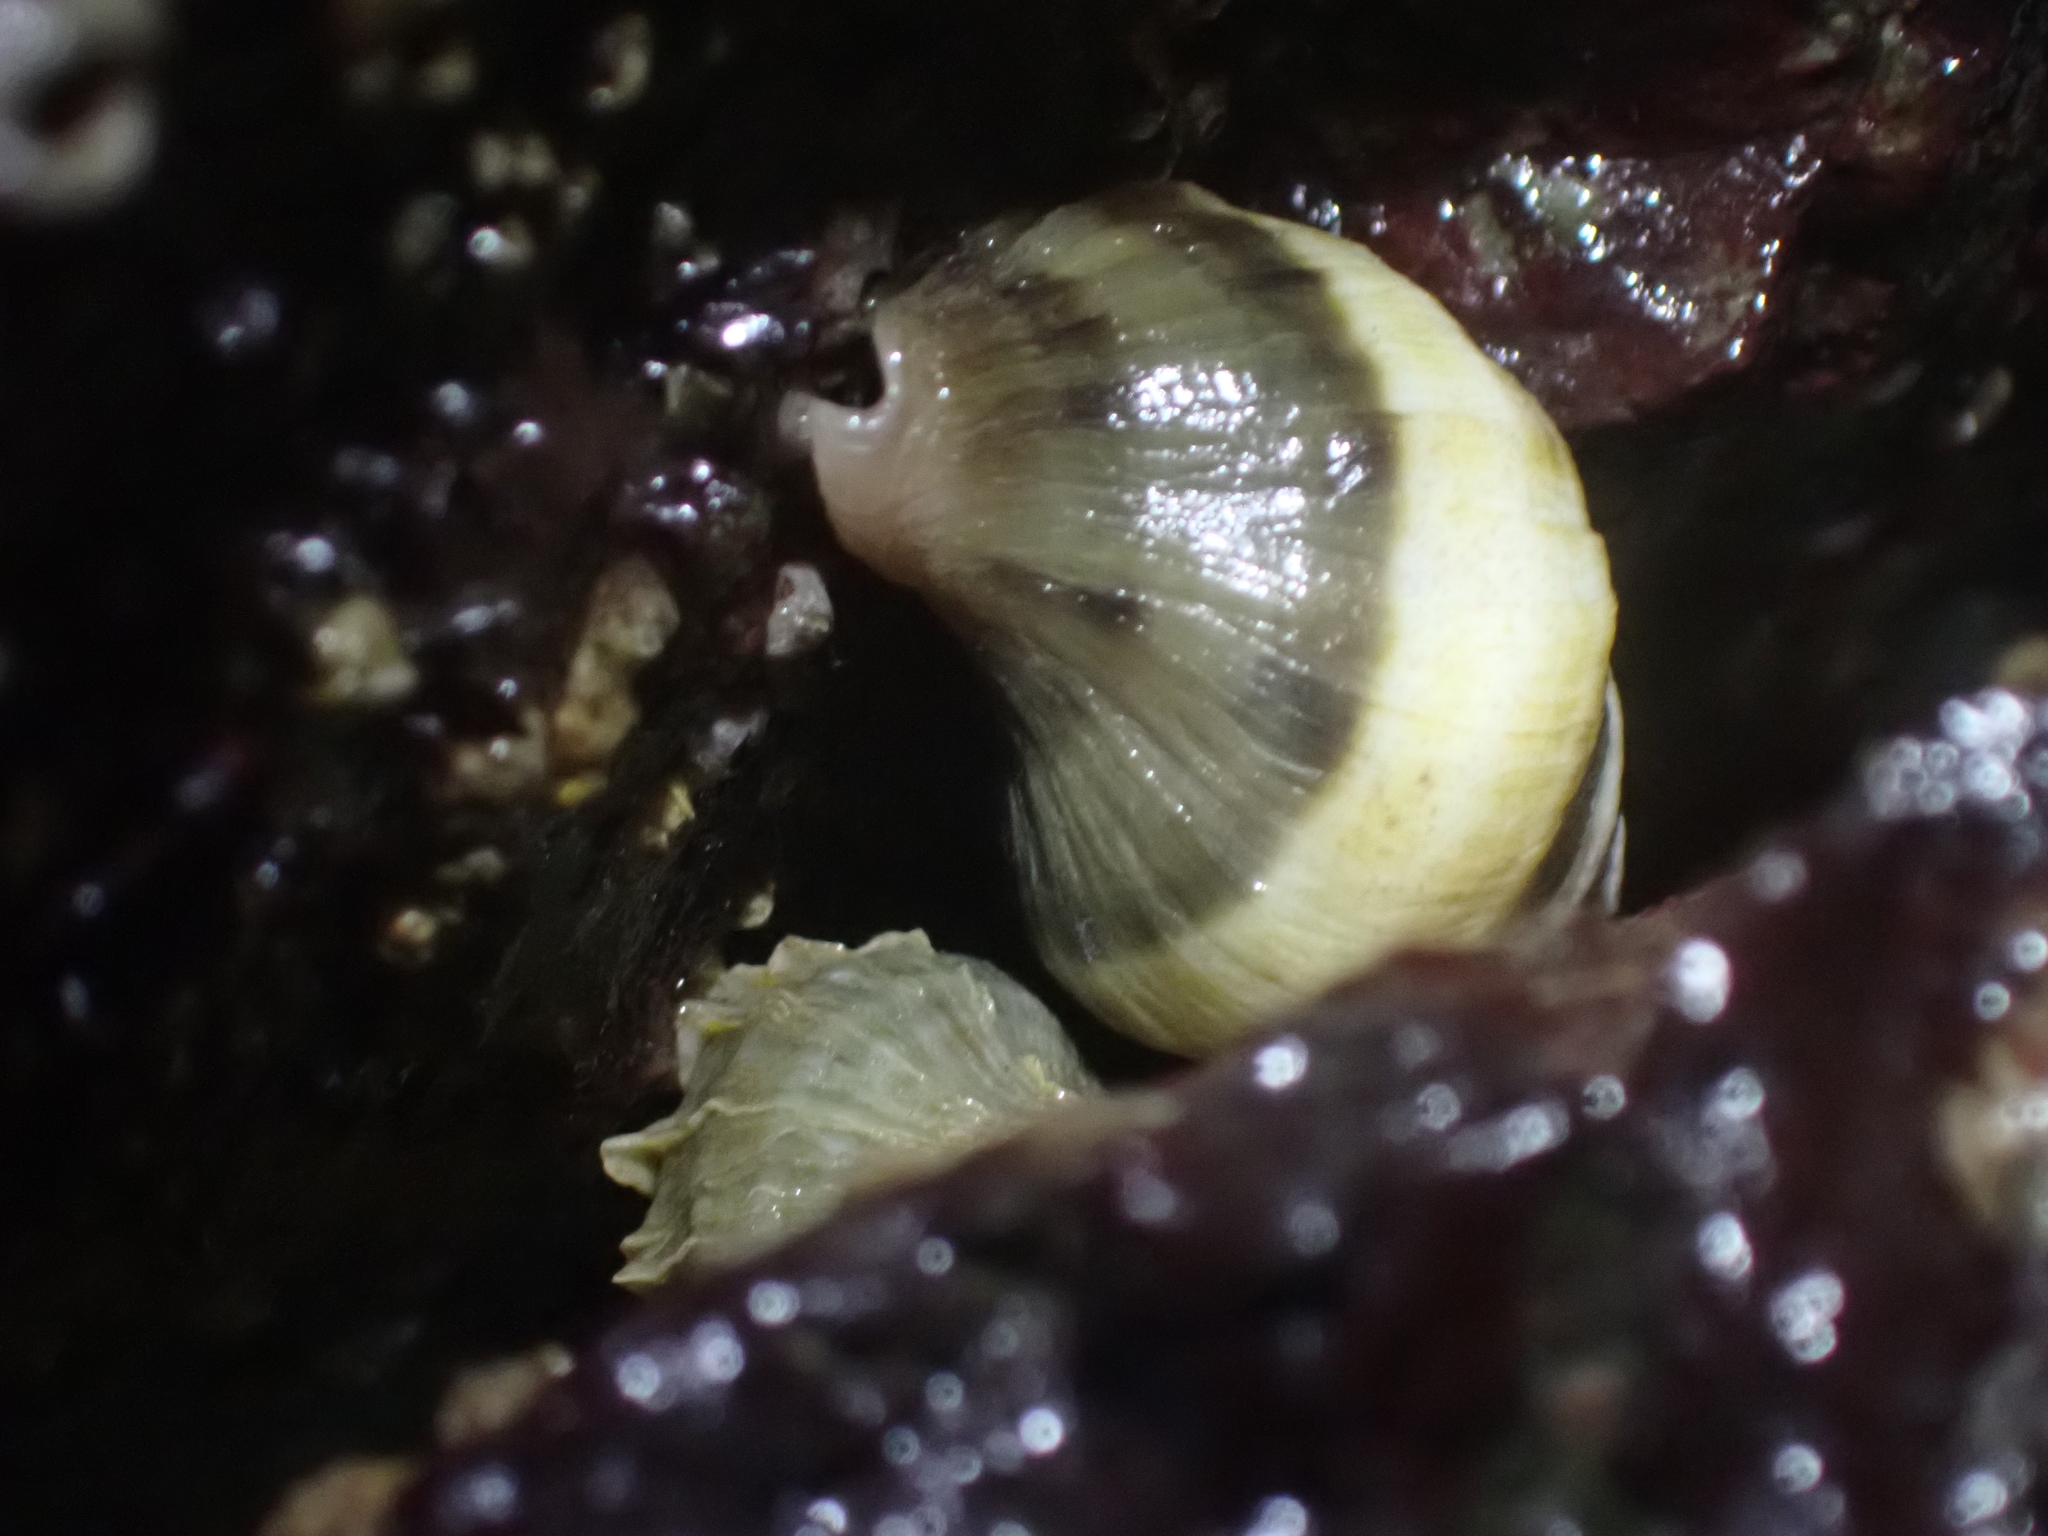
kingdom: Animalia
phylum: Mollusca
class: Gastropoda
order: Neogastropoda
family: Muricidae
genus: Nucella
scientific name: Nucella lamellosa
